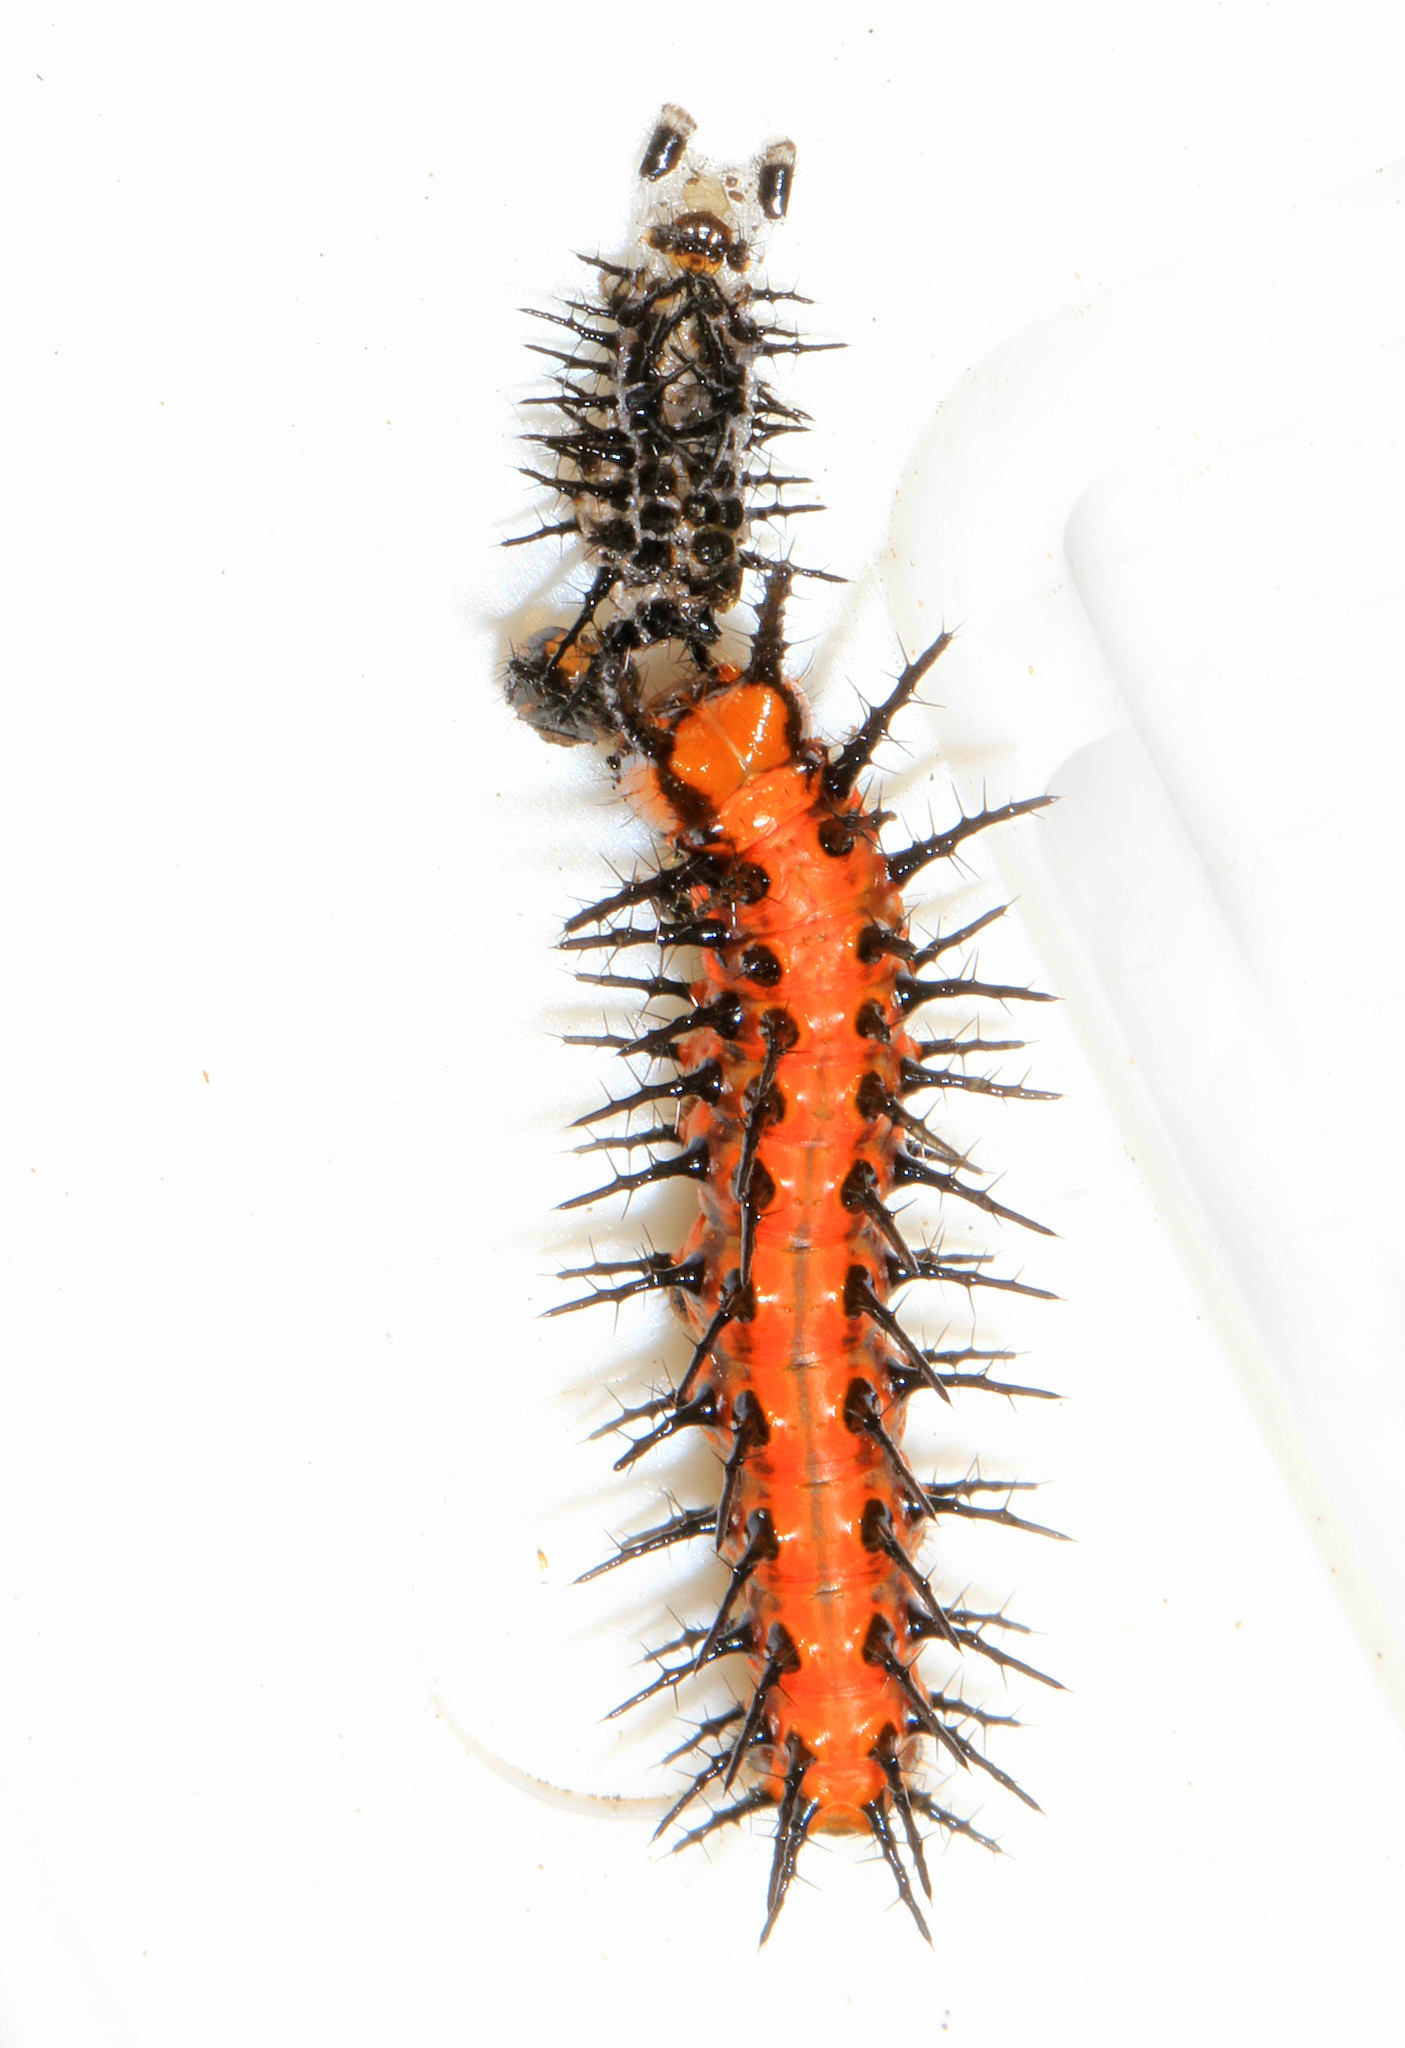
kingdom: Animalia
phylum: Arthropoda
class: Insecta
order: Lepidoptera
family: Nymphalidae
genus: Dione
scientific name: Dione vanillae
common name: Gulf fritillary
